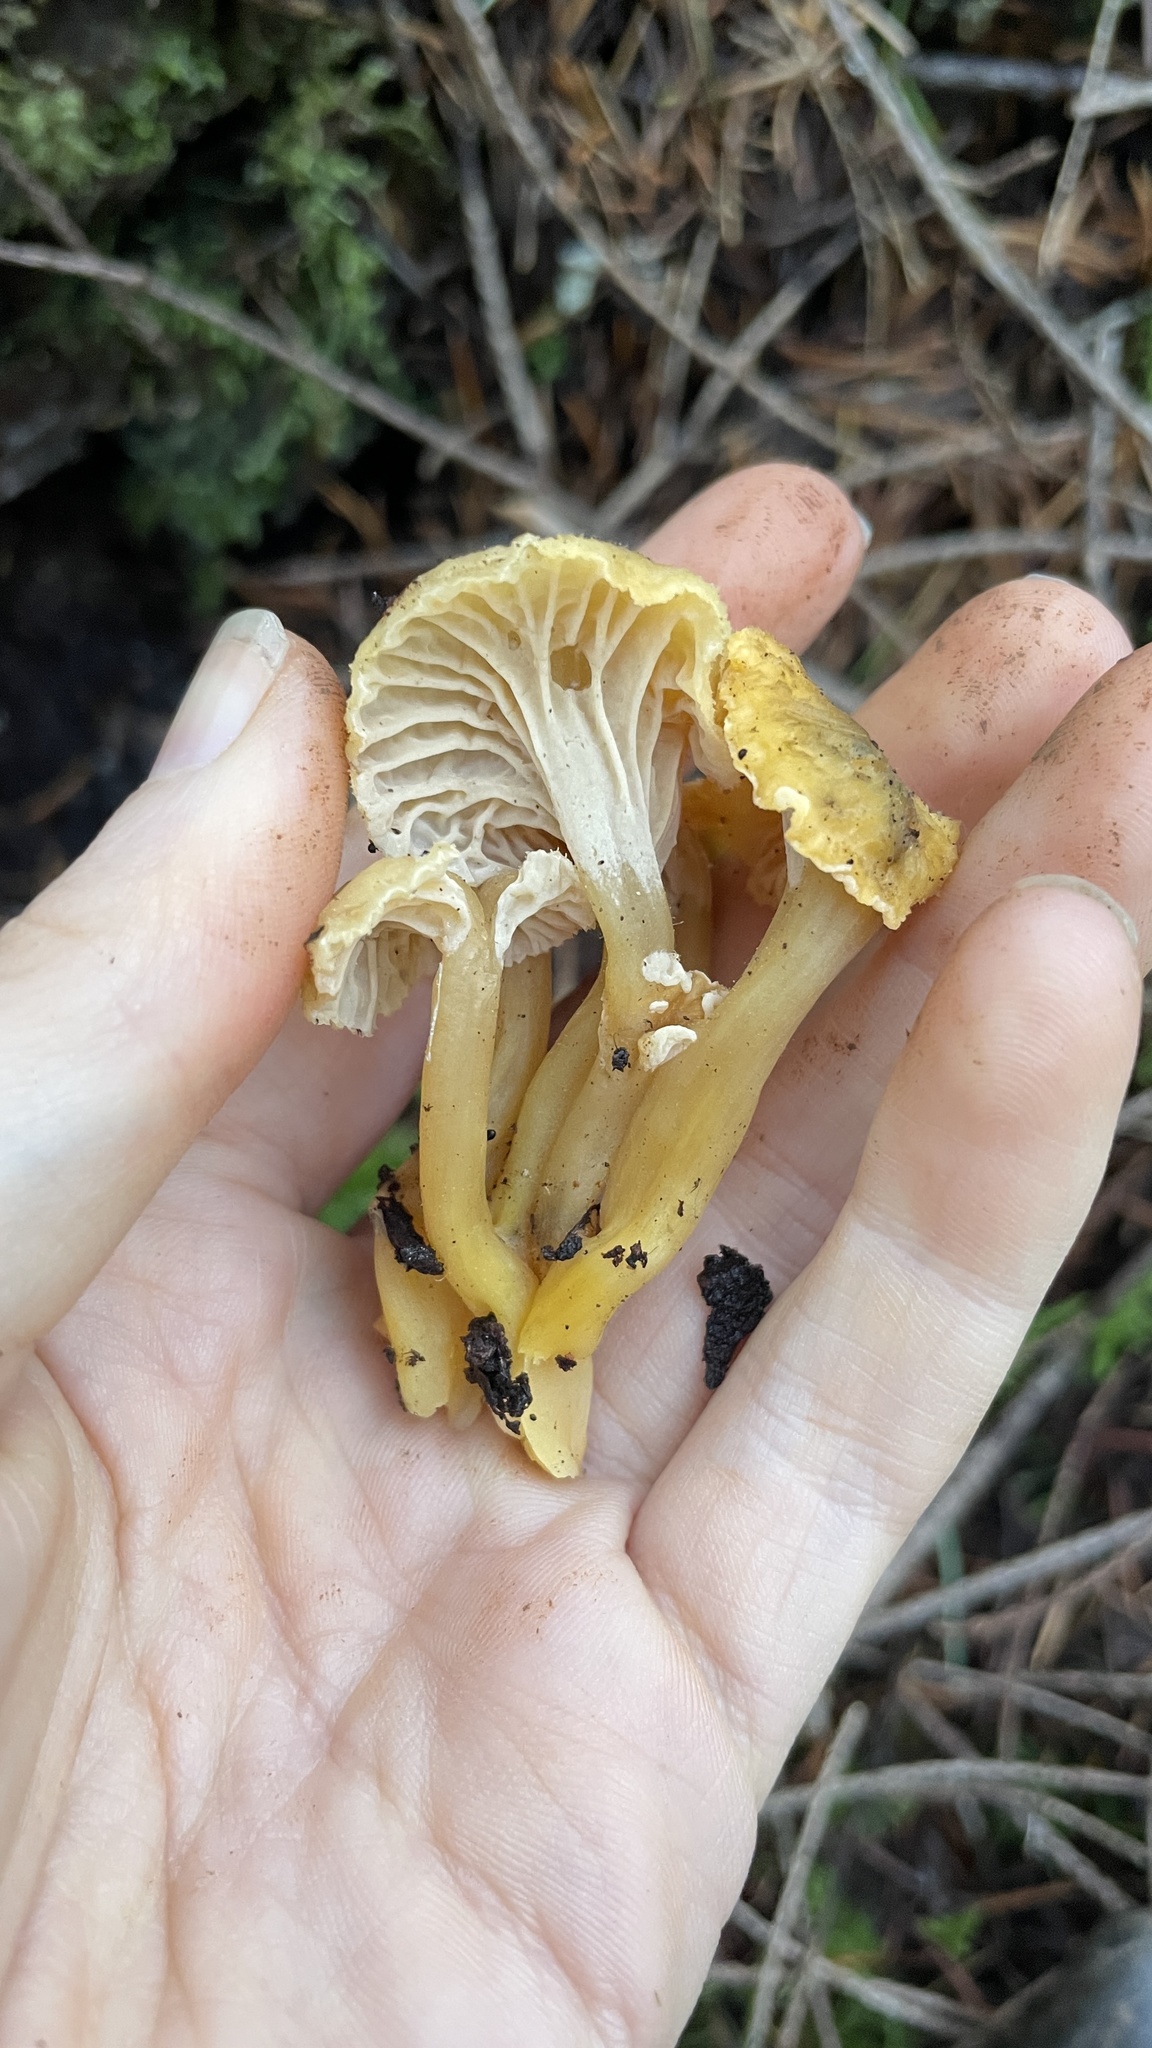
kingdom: Fungi
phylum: Basidiomycota
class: Agaricomycetes
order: Cantharellales
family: Hydnaceae
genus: Craterellus
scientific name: Craterellus tubaeformis
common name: Yellowfoot
